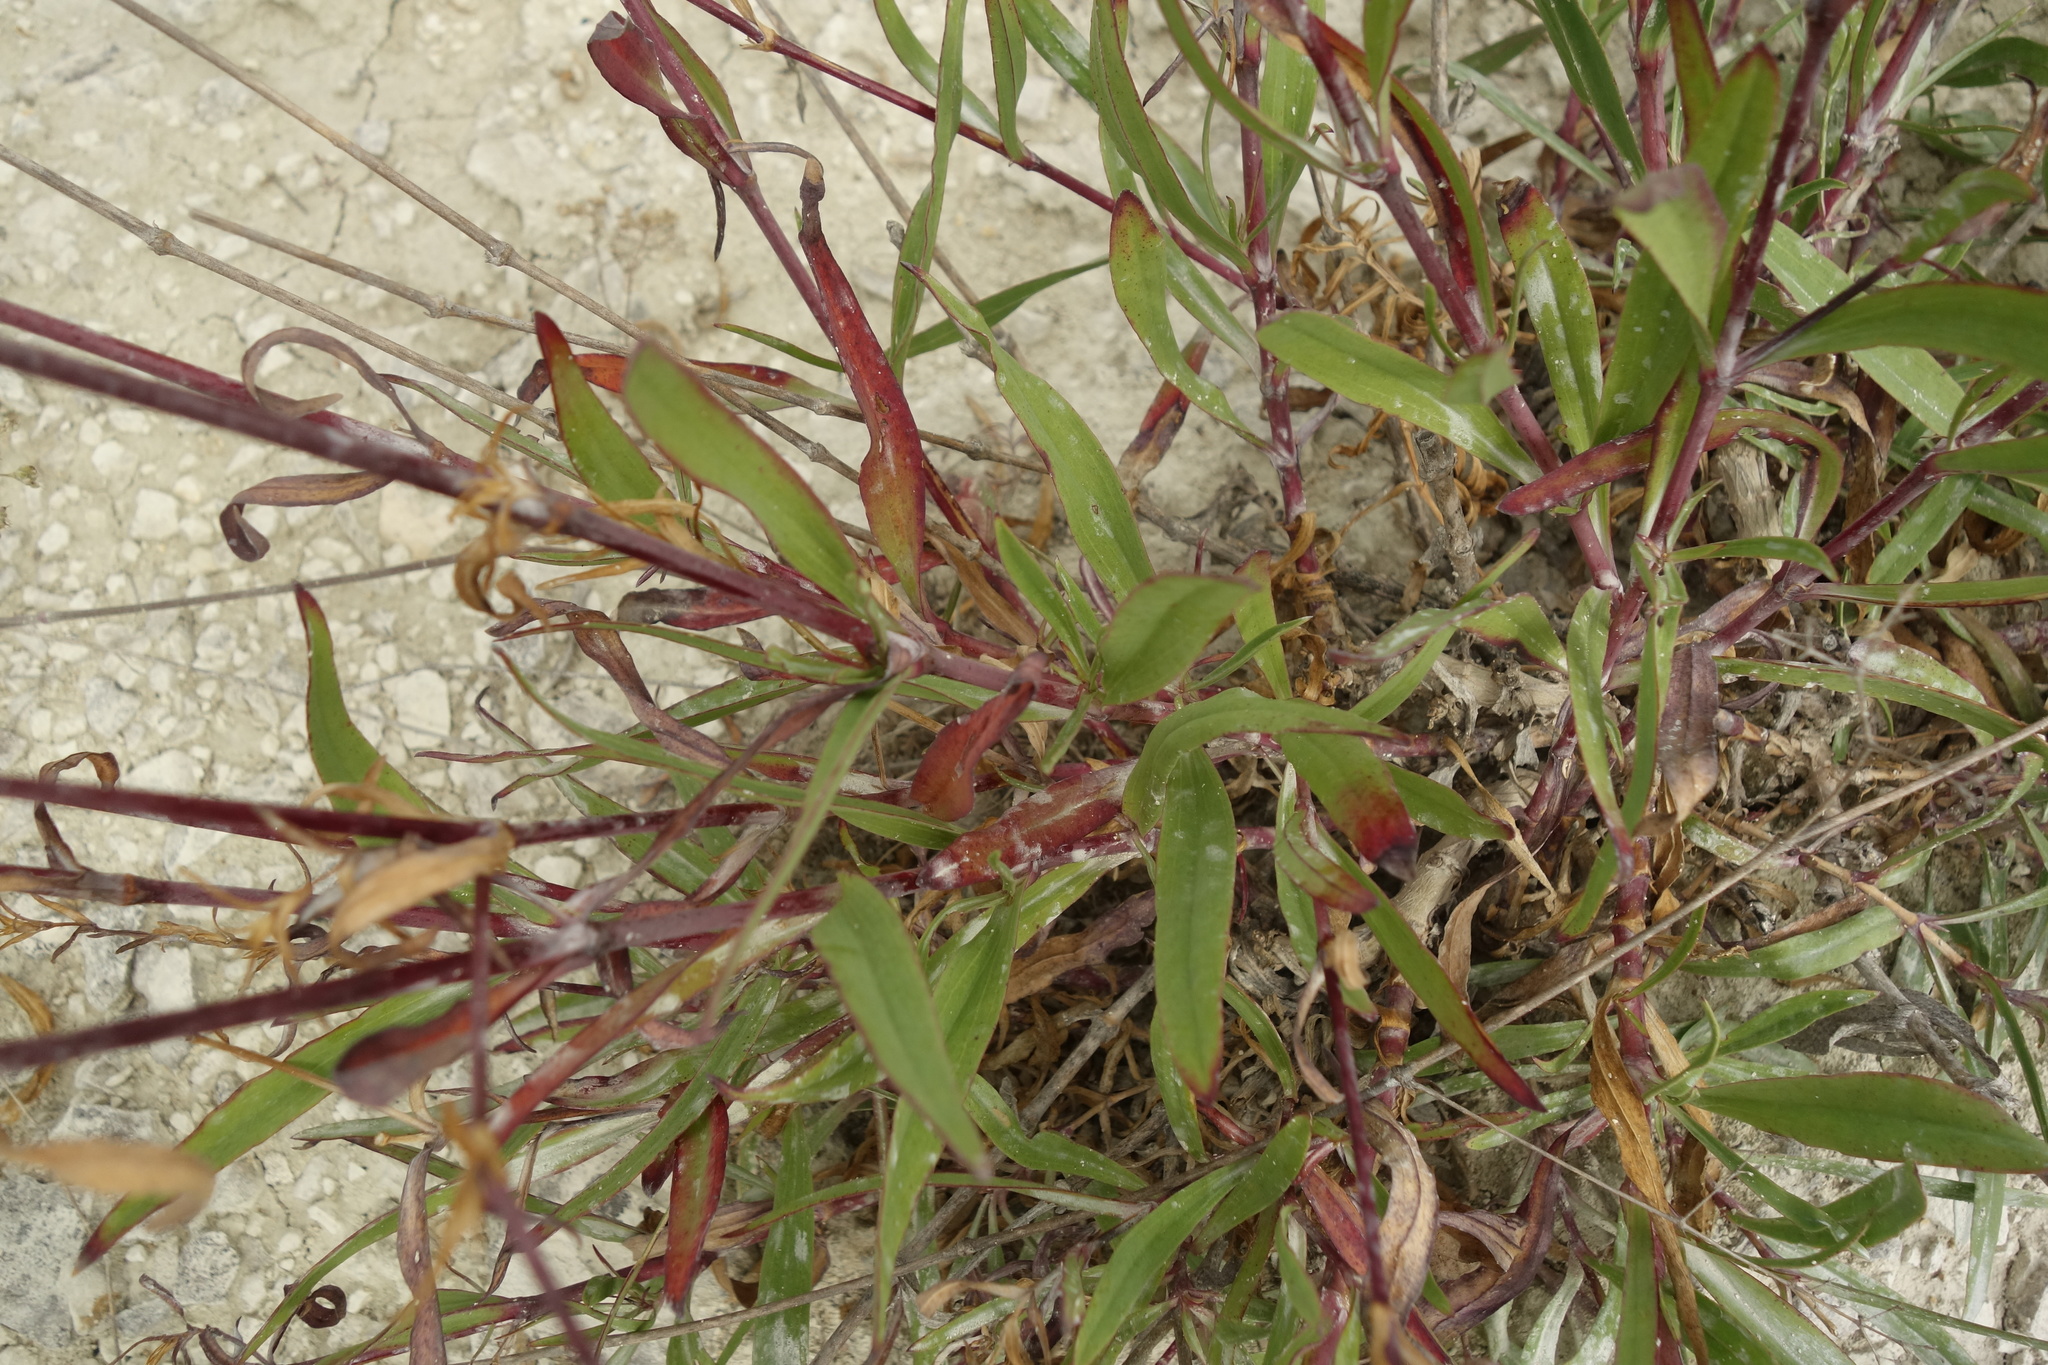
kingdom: Plantae
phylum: Tracheophyta
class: Magnoliopsida
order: Caryophyllales
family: Caryophyllaceae
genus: Gypsophila
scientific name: Gypsophila altissima
